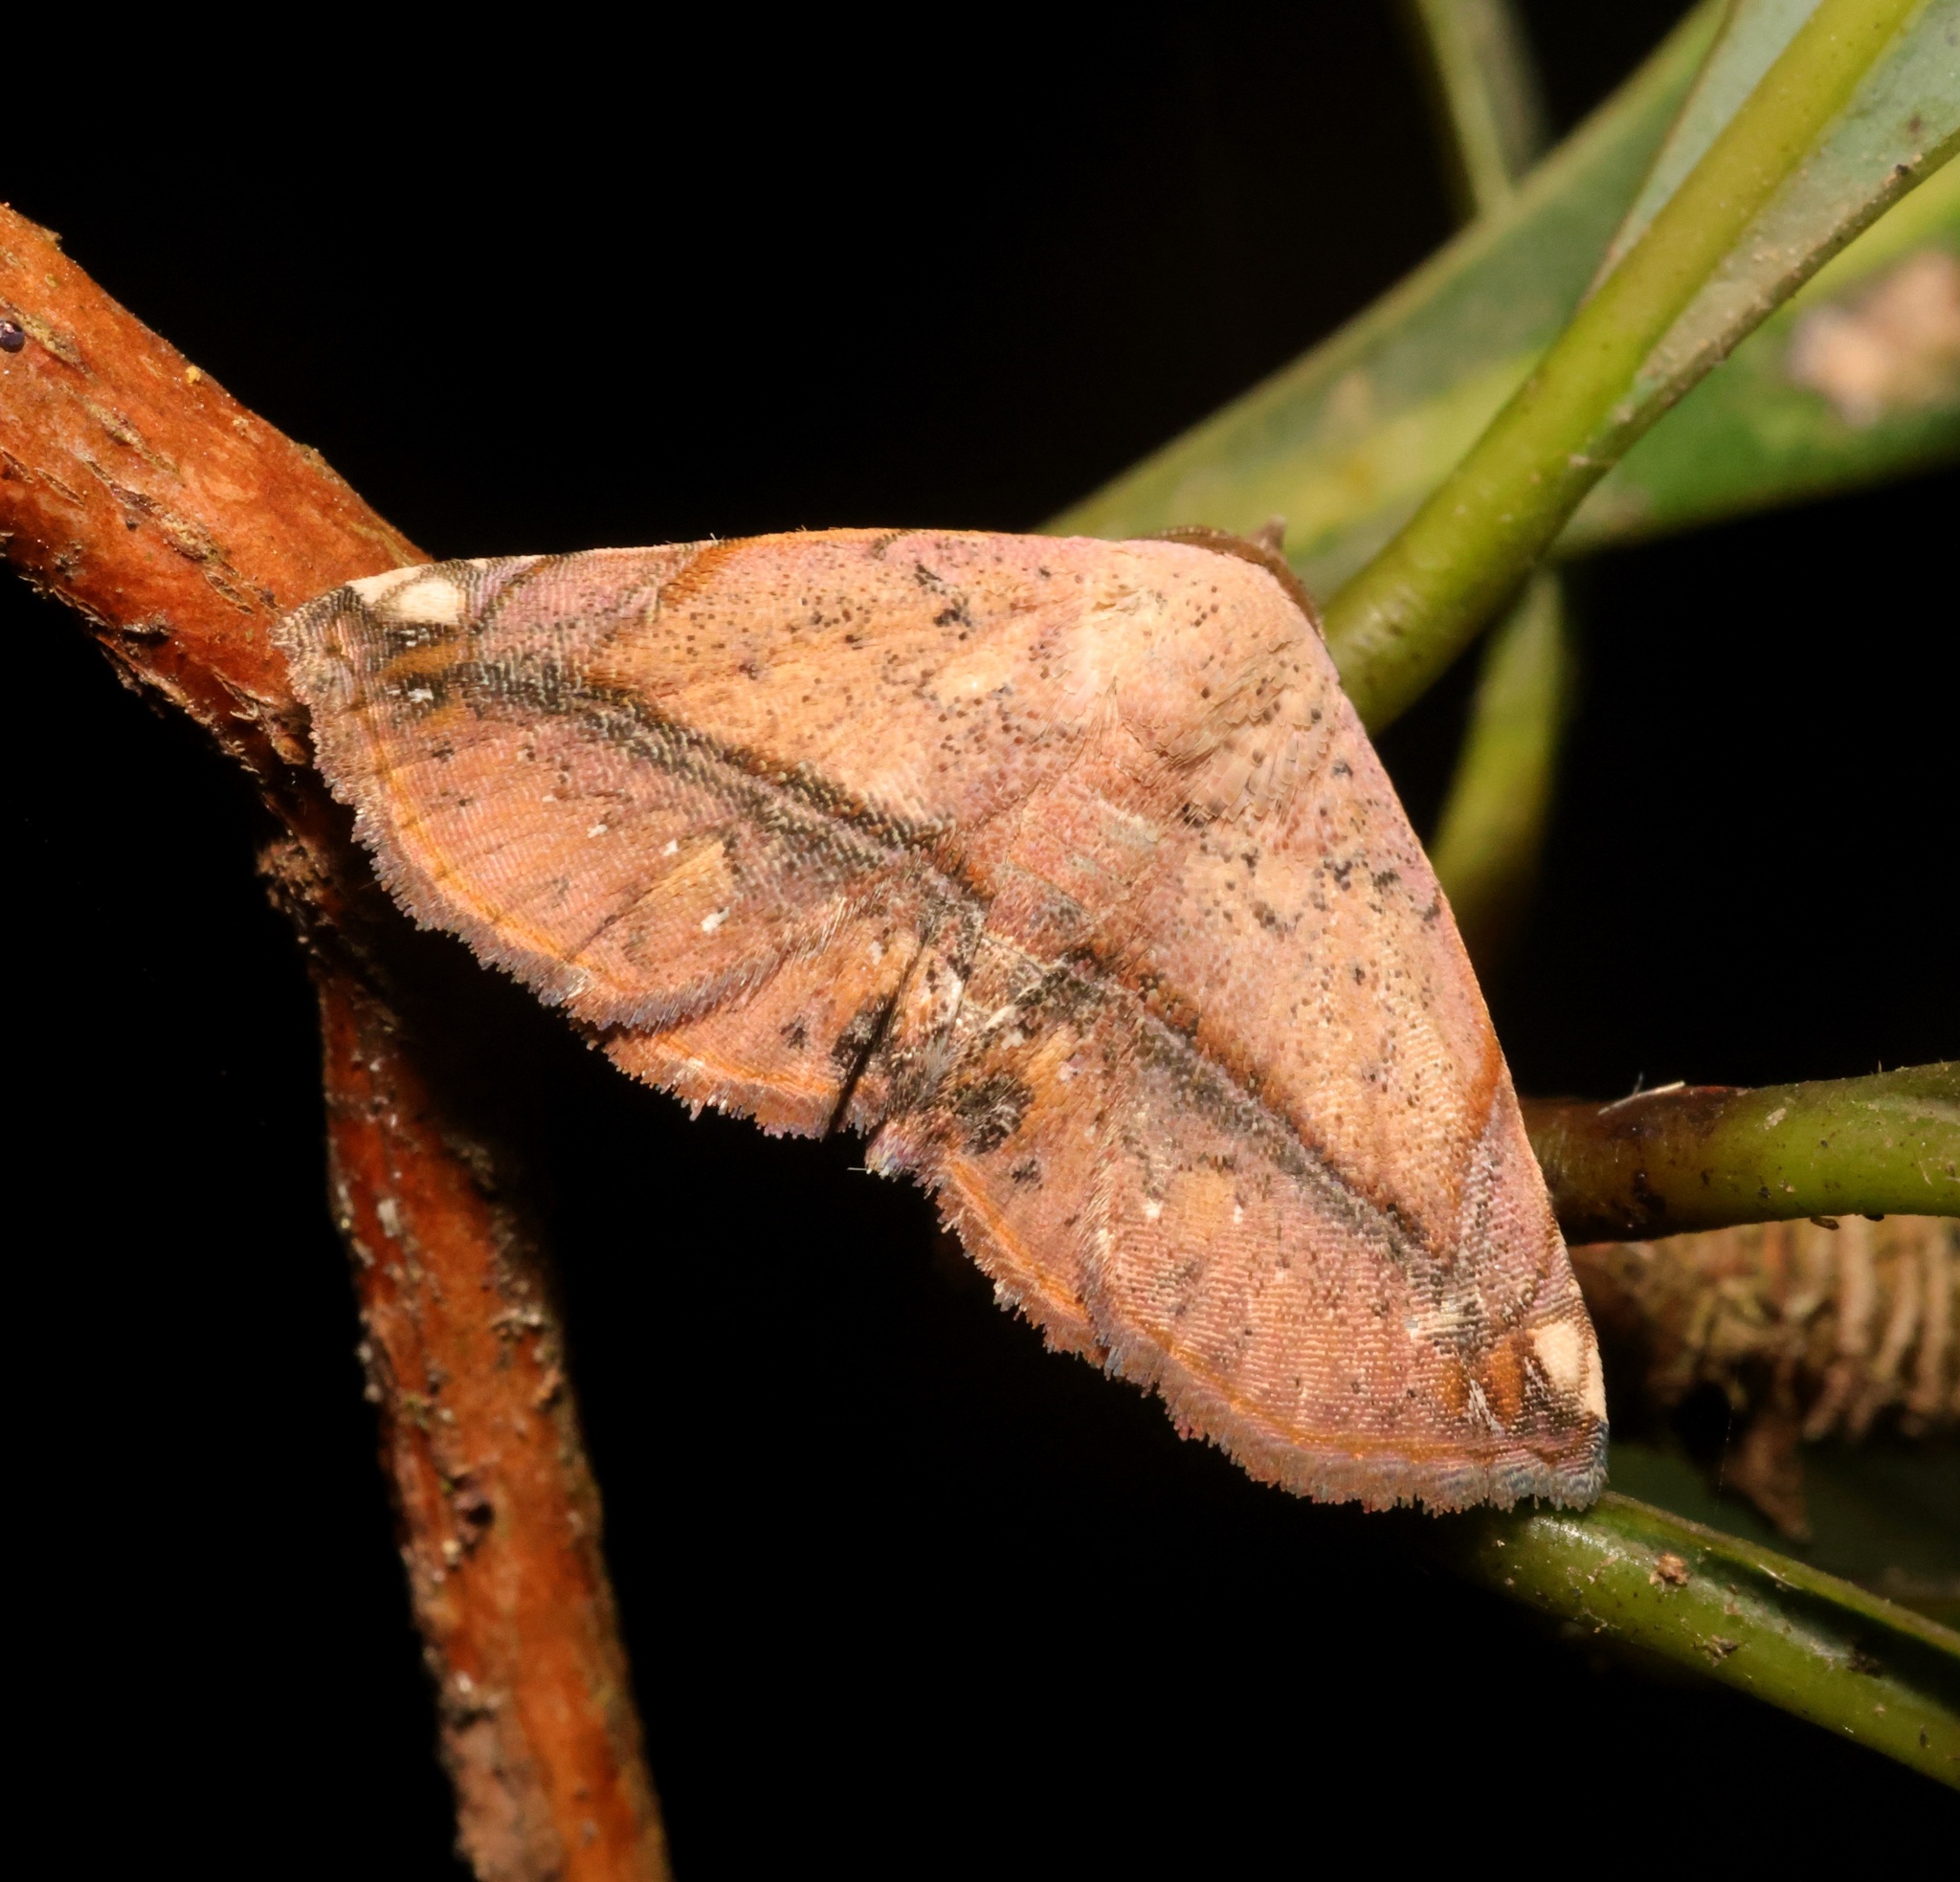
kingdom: Animalia
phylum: Arthropoda
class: Insecta
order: Lepidoptera
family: Noctuidae
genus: Eublemma
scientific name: Eublemma abrupta
